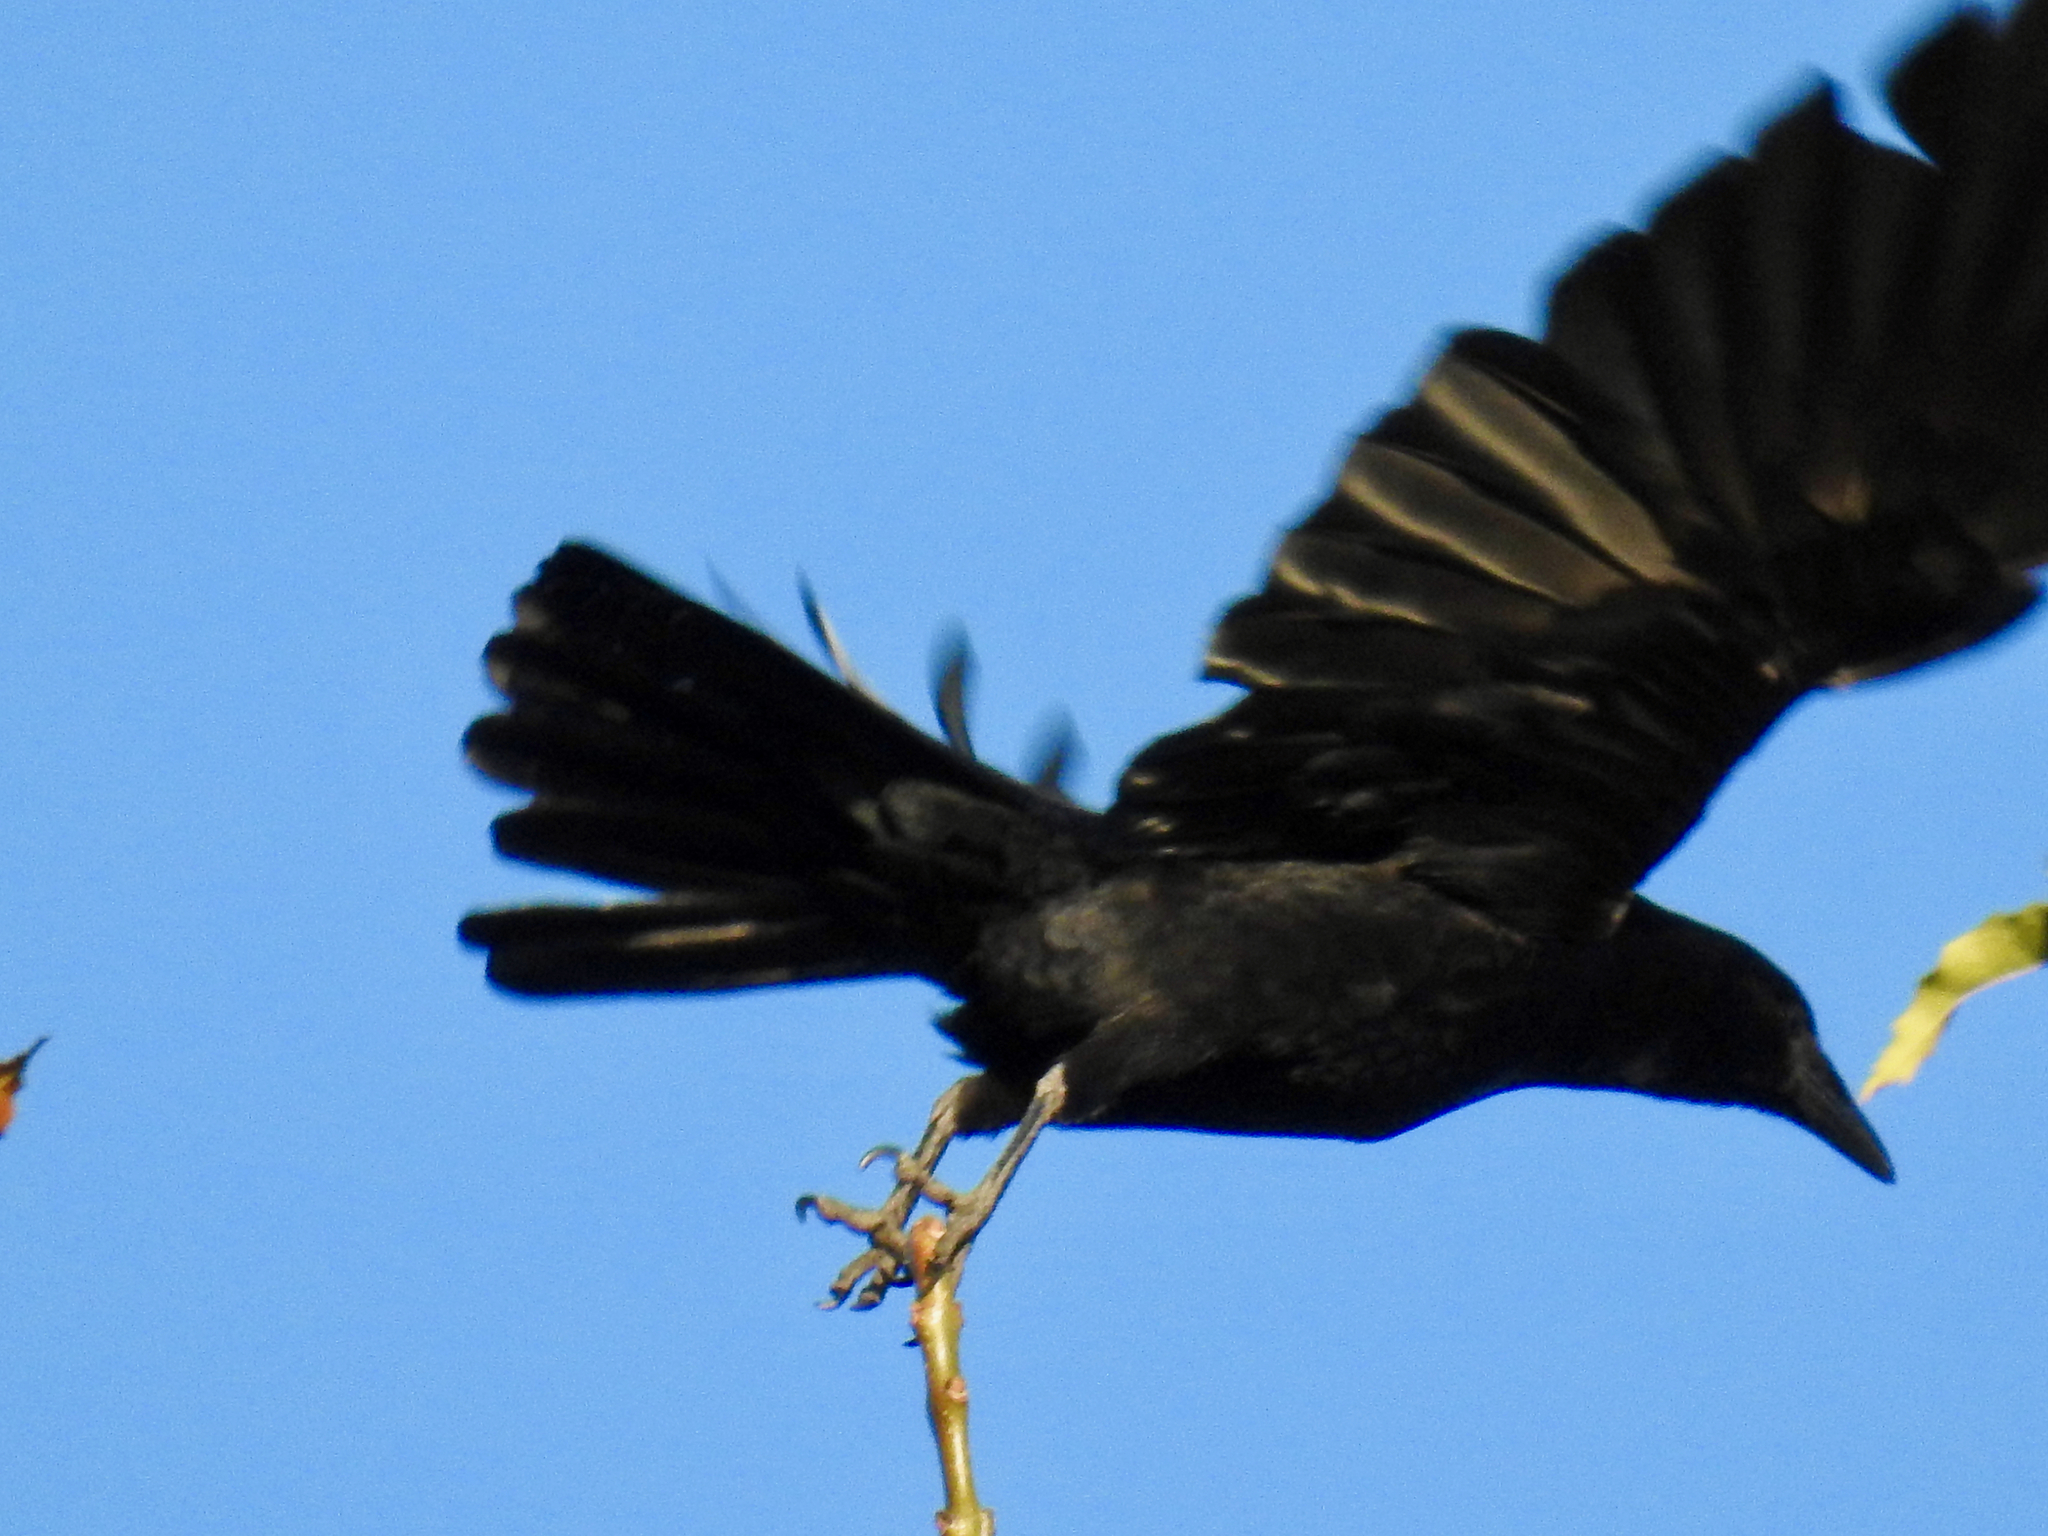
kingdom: Animalia
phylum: Chordata
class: Aves
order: Passeriformes
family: Corvidae
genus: Corvus
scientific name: Corvus brachyrhynchos
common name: American crow
